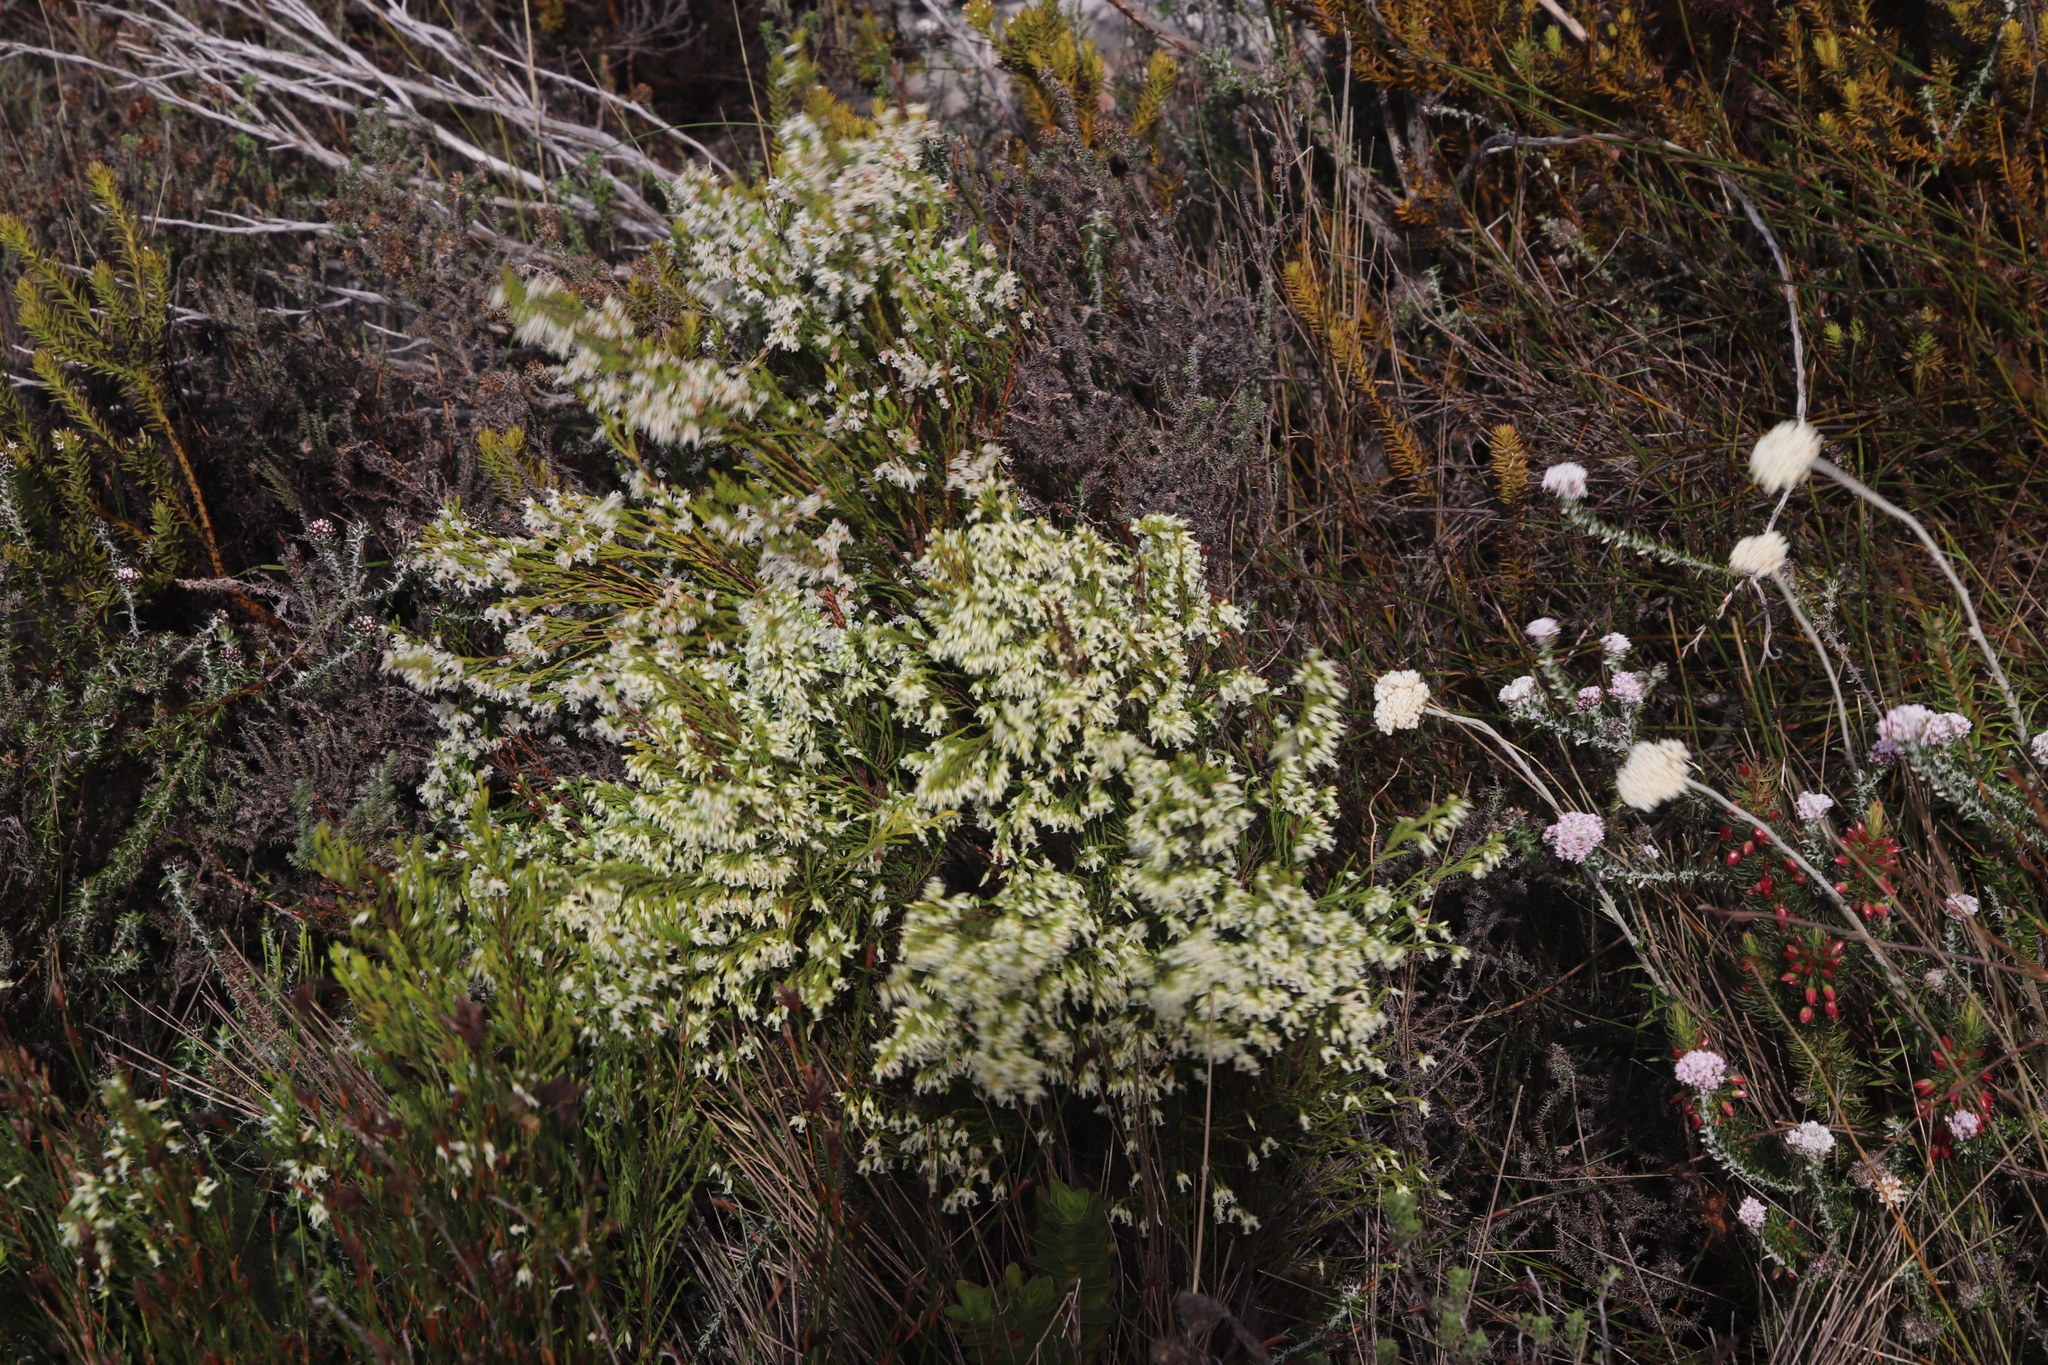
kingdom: Plantae
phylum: Tracheophyta
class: Magnoliopsida
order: Ericales
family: Ericaceae
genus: Erica
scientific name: Erica lutea
